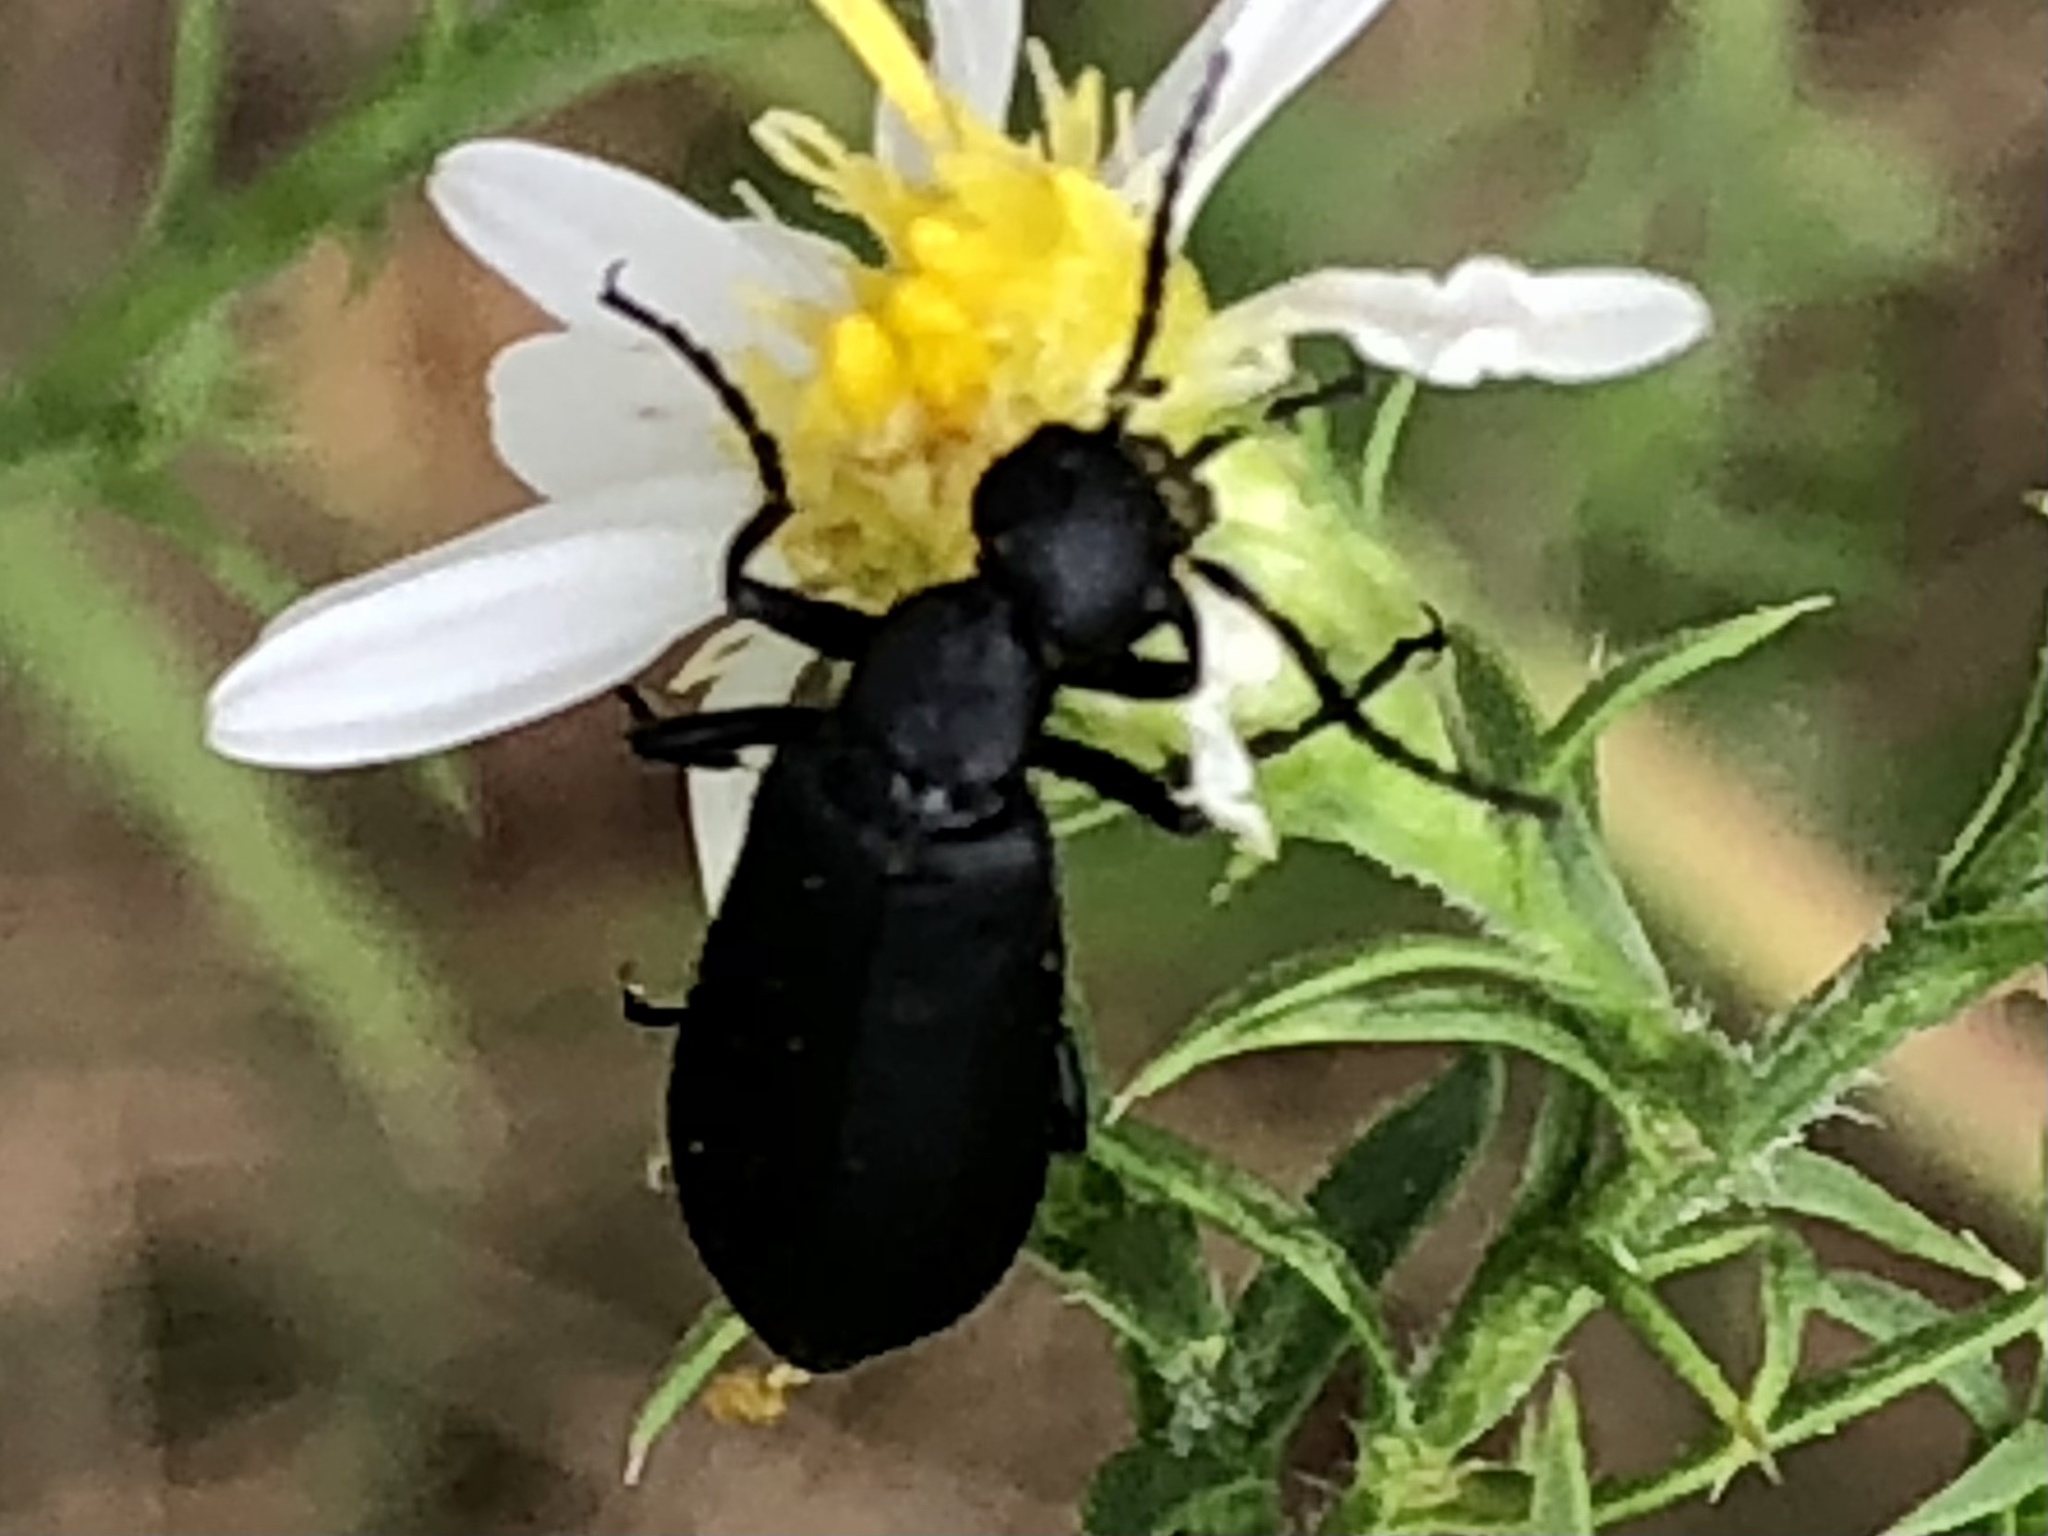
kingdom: Animalia
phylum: Arthropoda
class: Insecta
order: Coleoptera
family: Meloidae
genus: Epicauta
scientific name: Epicauta pensylvanica
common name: Black blister beetle
